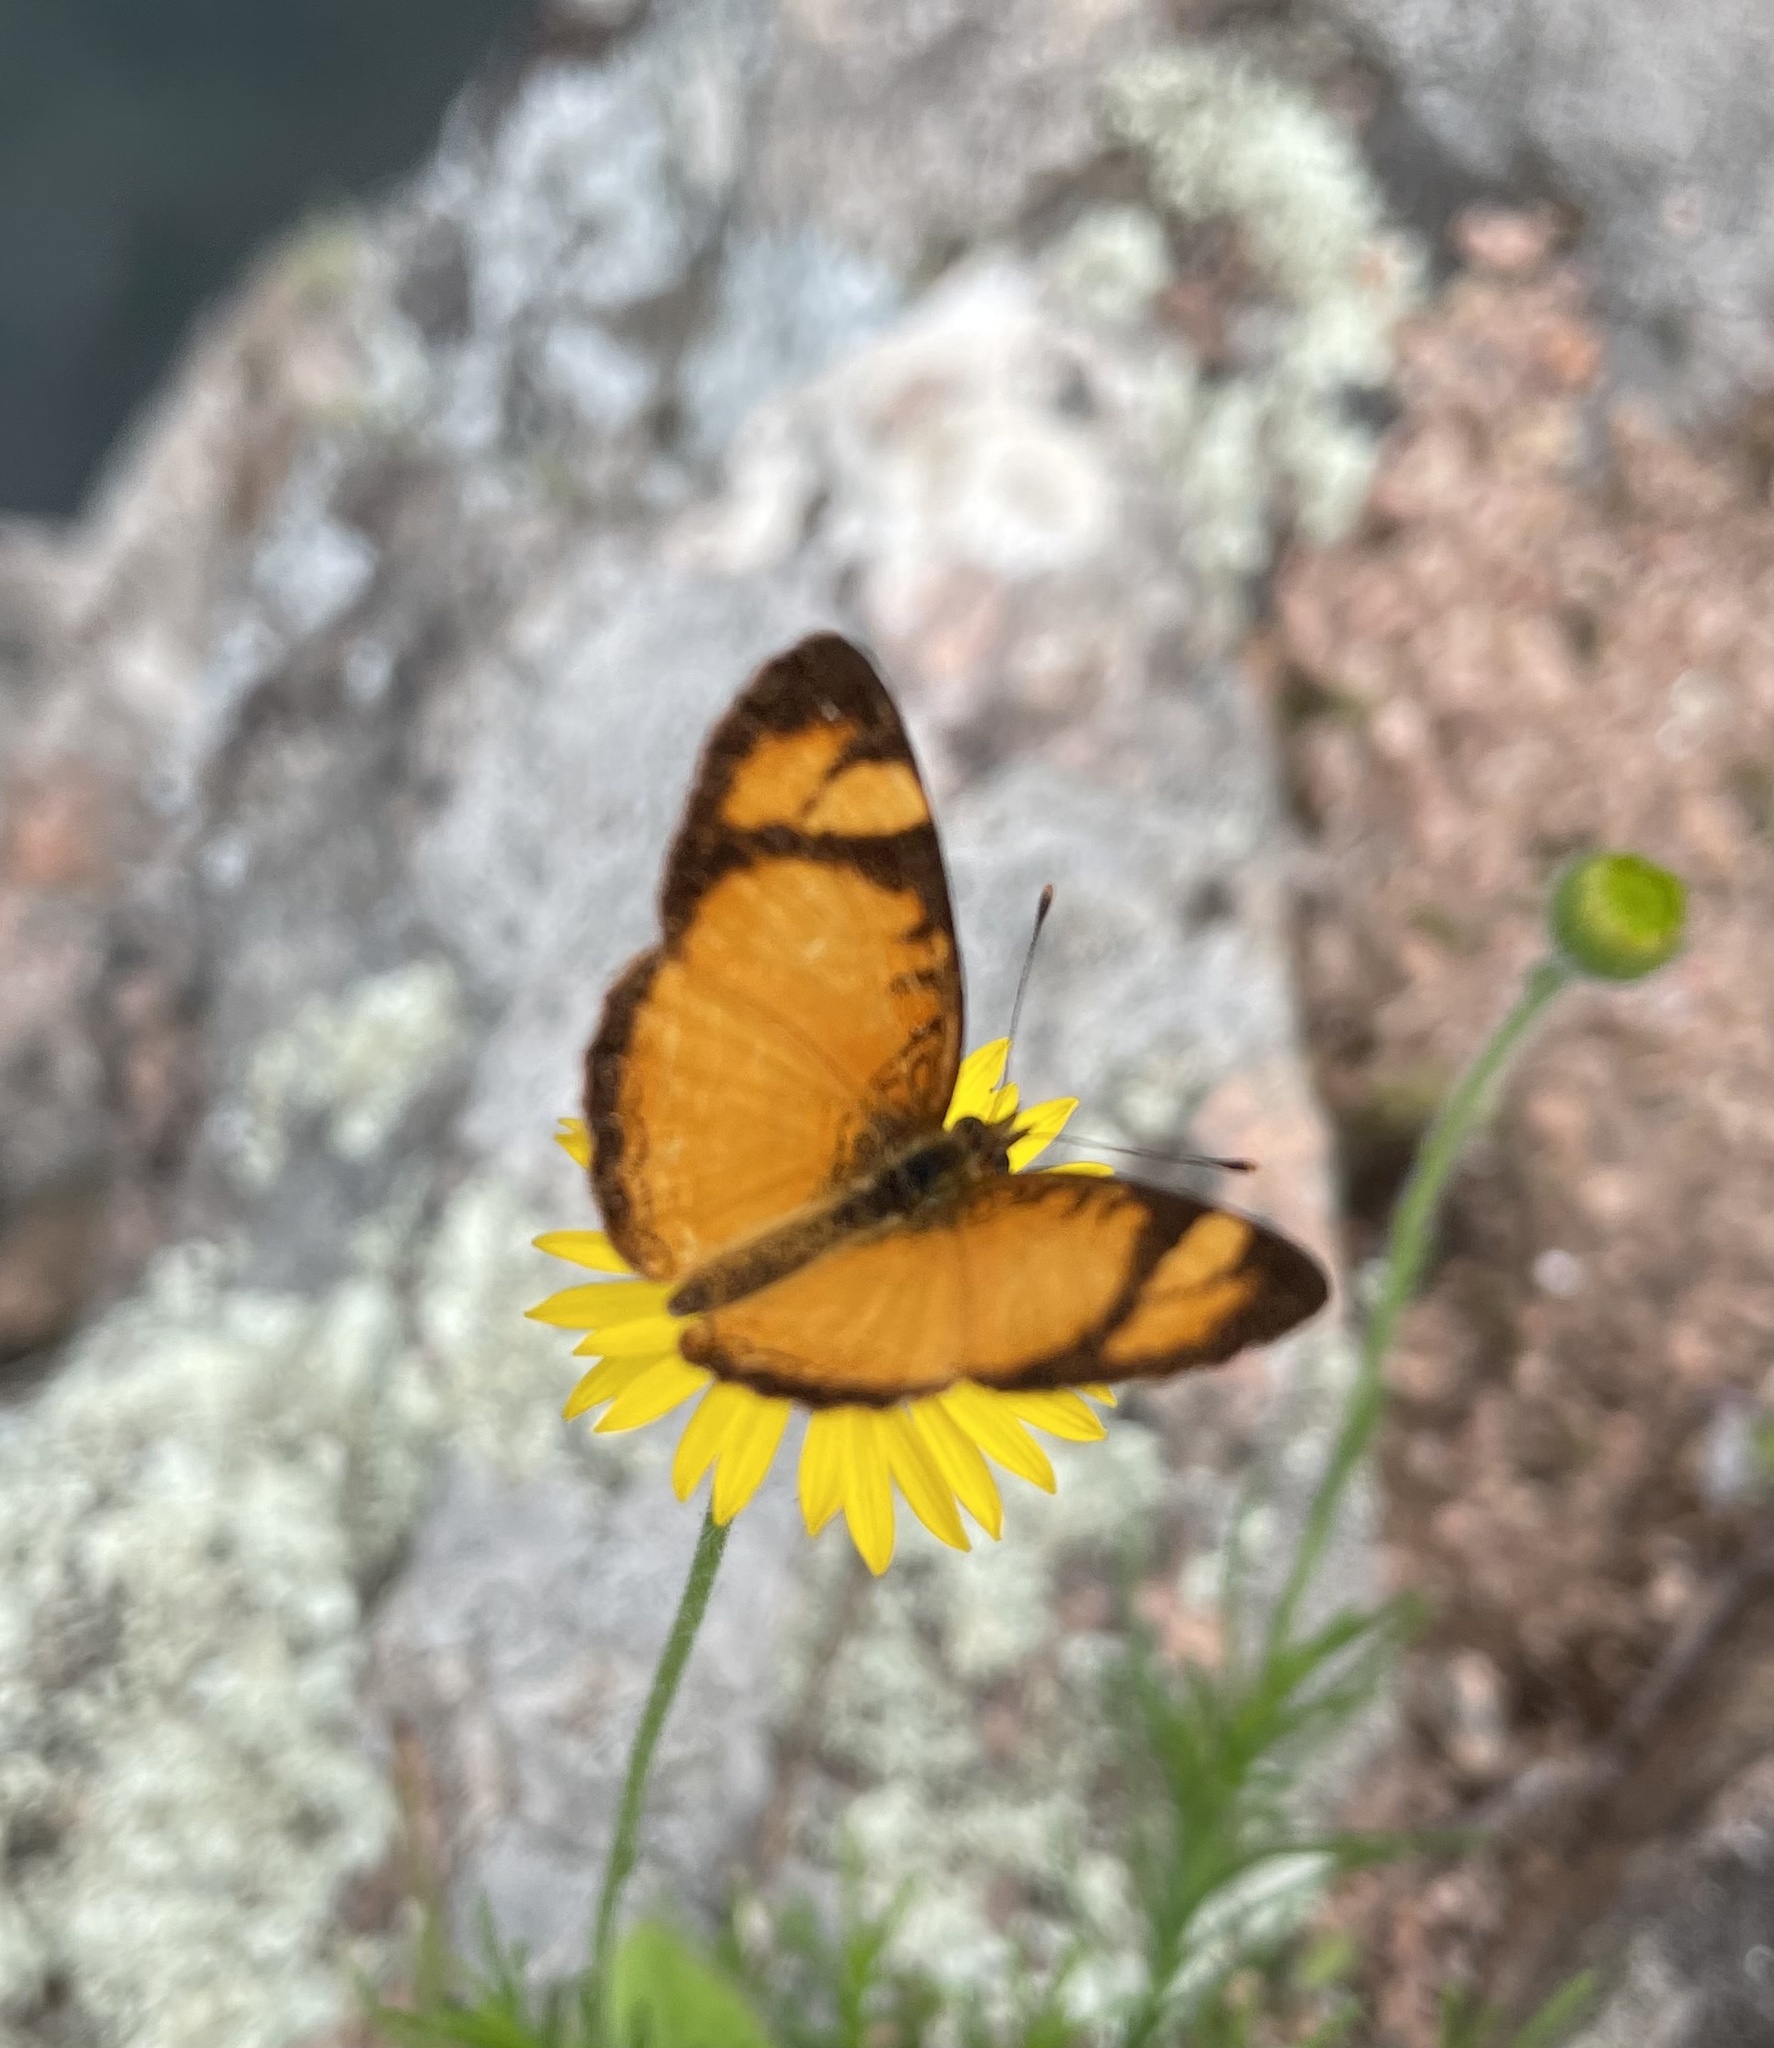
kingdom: Animalia
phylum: Arthropoda
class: Insecta
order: Lepidoptera
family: Nymphalidae
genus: Tegosa
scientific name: Tegosa claudina
